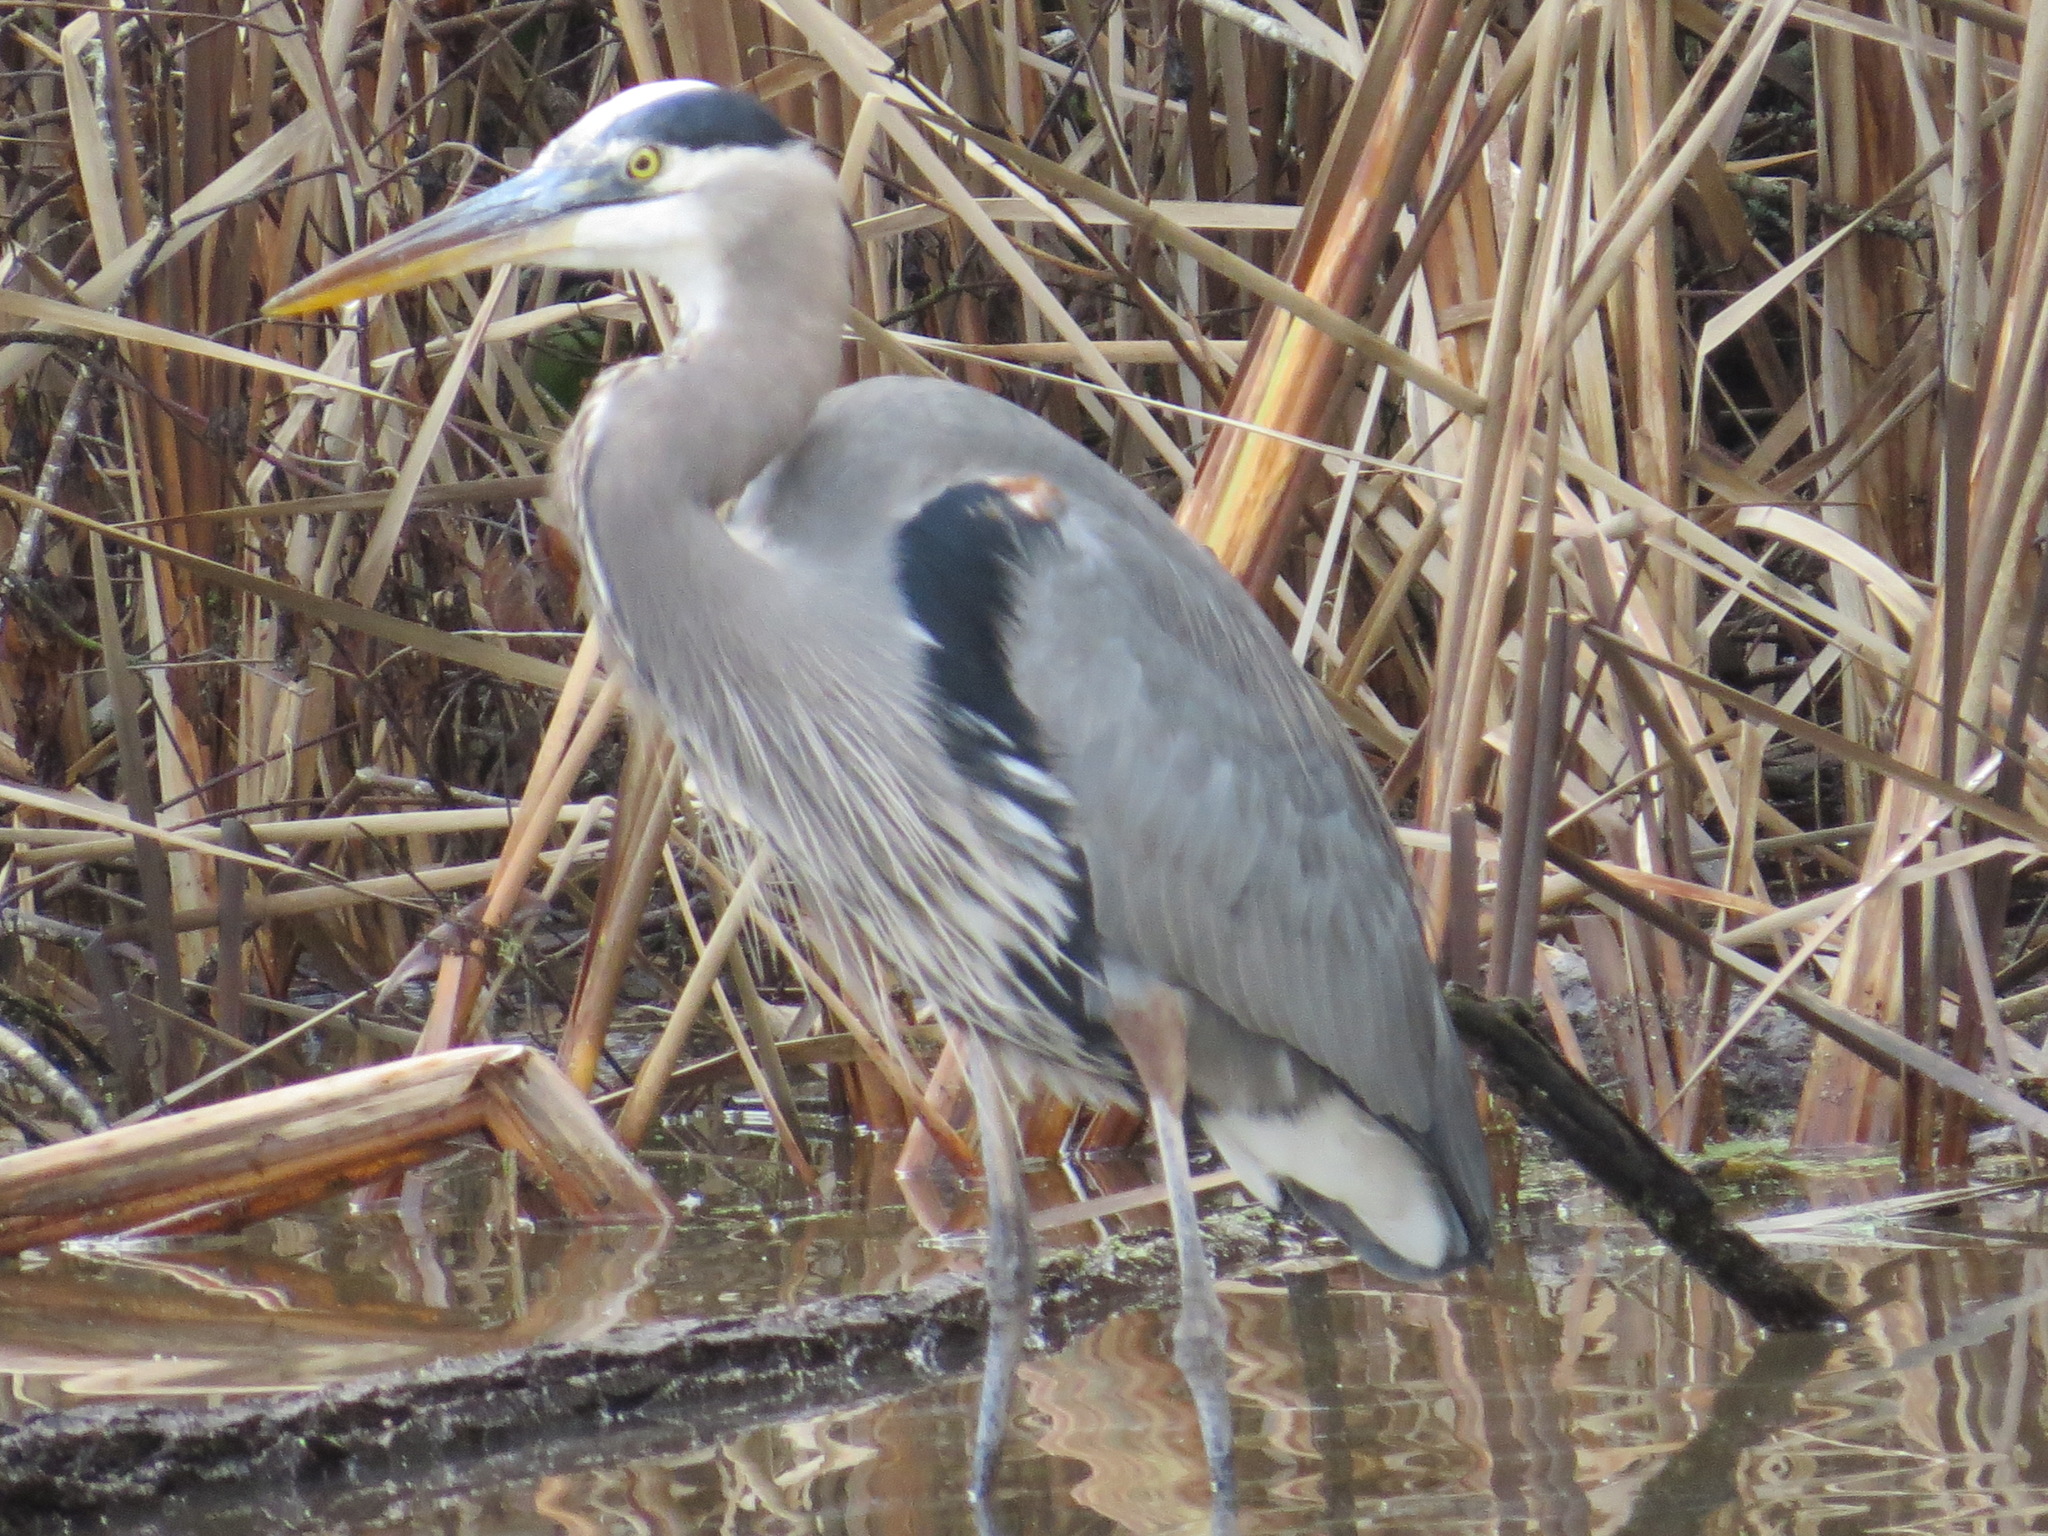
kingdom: Animalia
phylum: Chordata
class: Aves
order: Pelecaniformes
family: Ardeidae
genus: Ardea
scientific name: Ardea herodias
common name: Great blue heron
